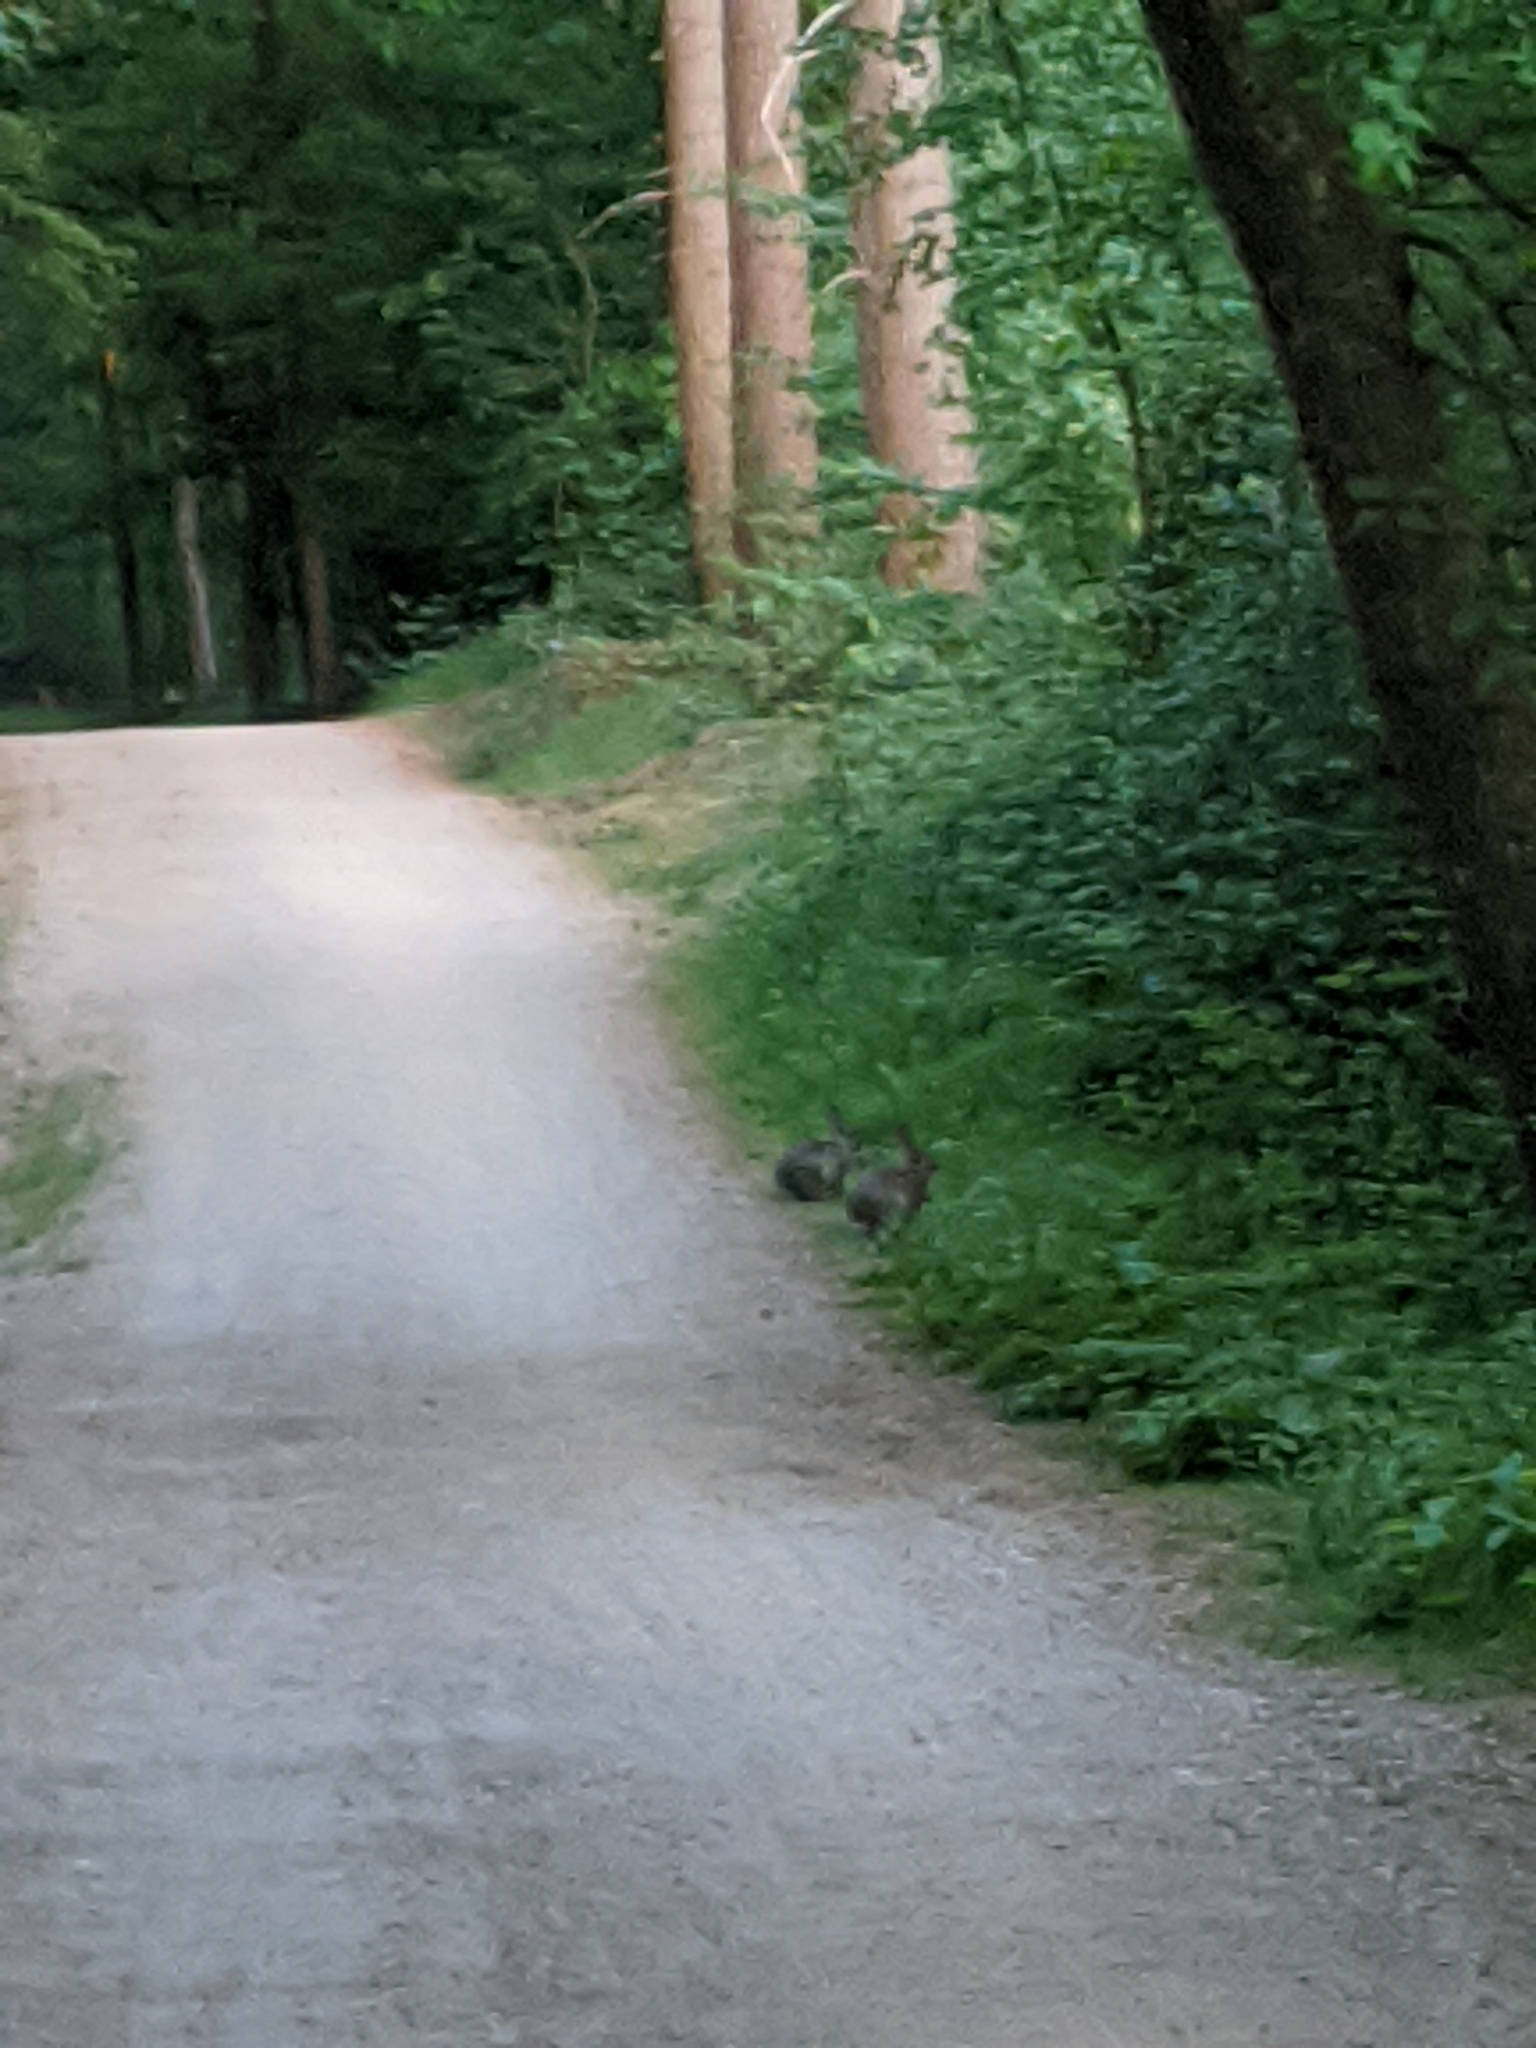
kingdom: Animalia
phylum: Chordata
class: Mammalia
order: Lagomorpha
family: Leporidae
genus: Oryctolagus
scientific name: Oryctolagus cuniculus
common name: European rabbit
